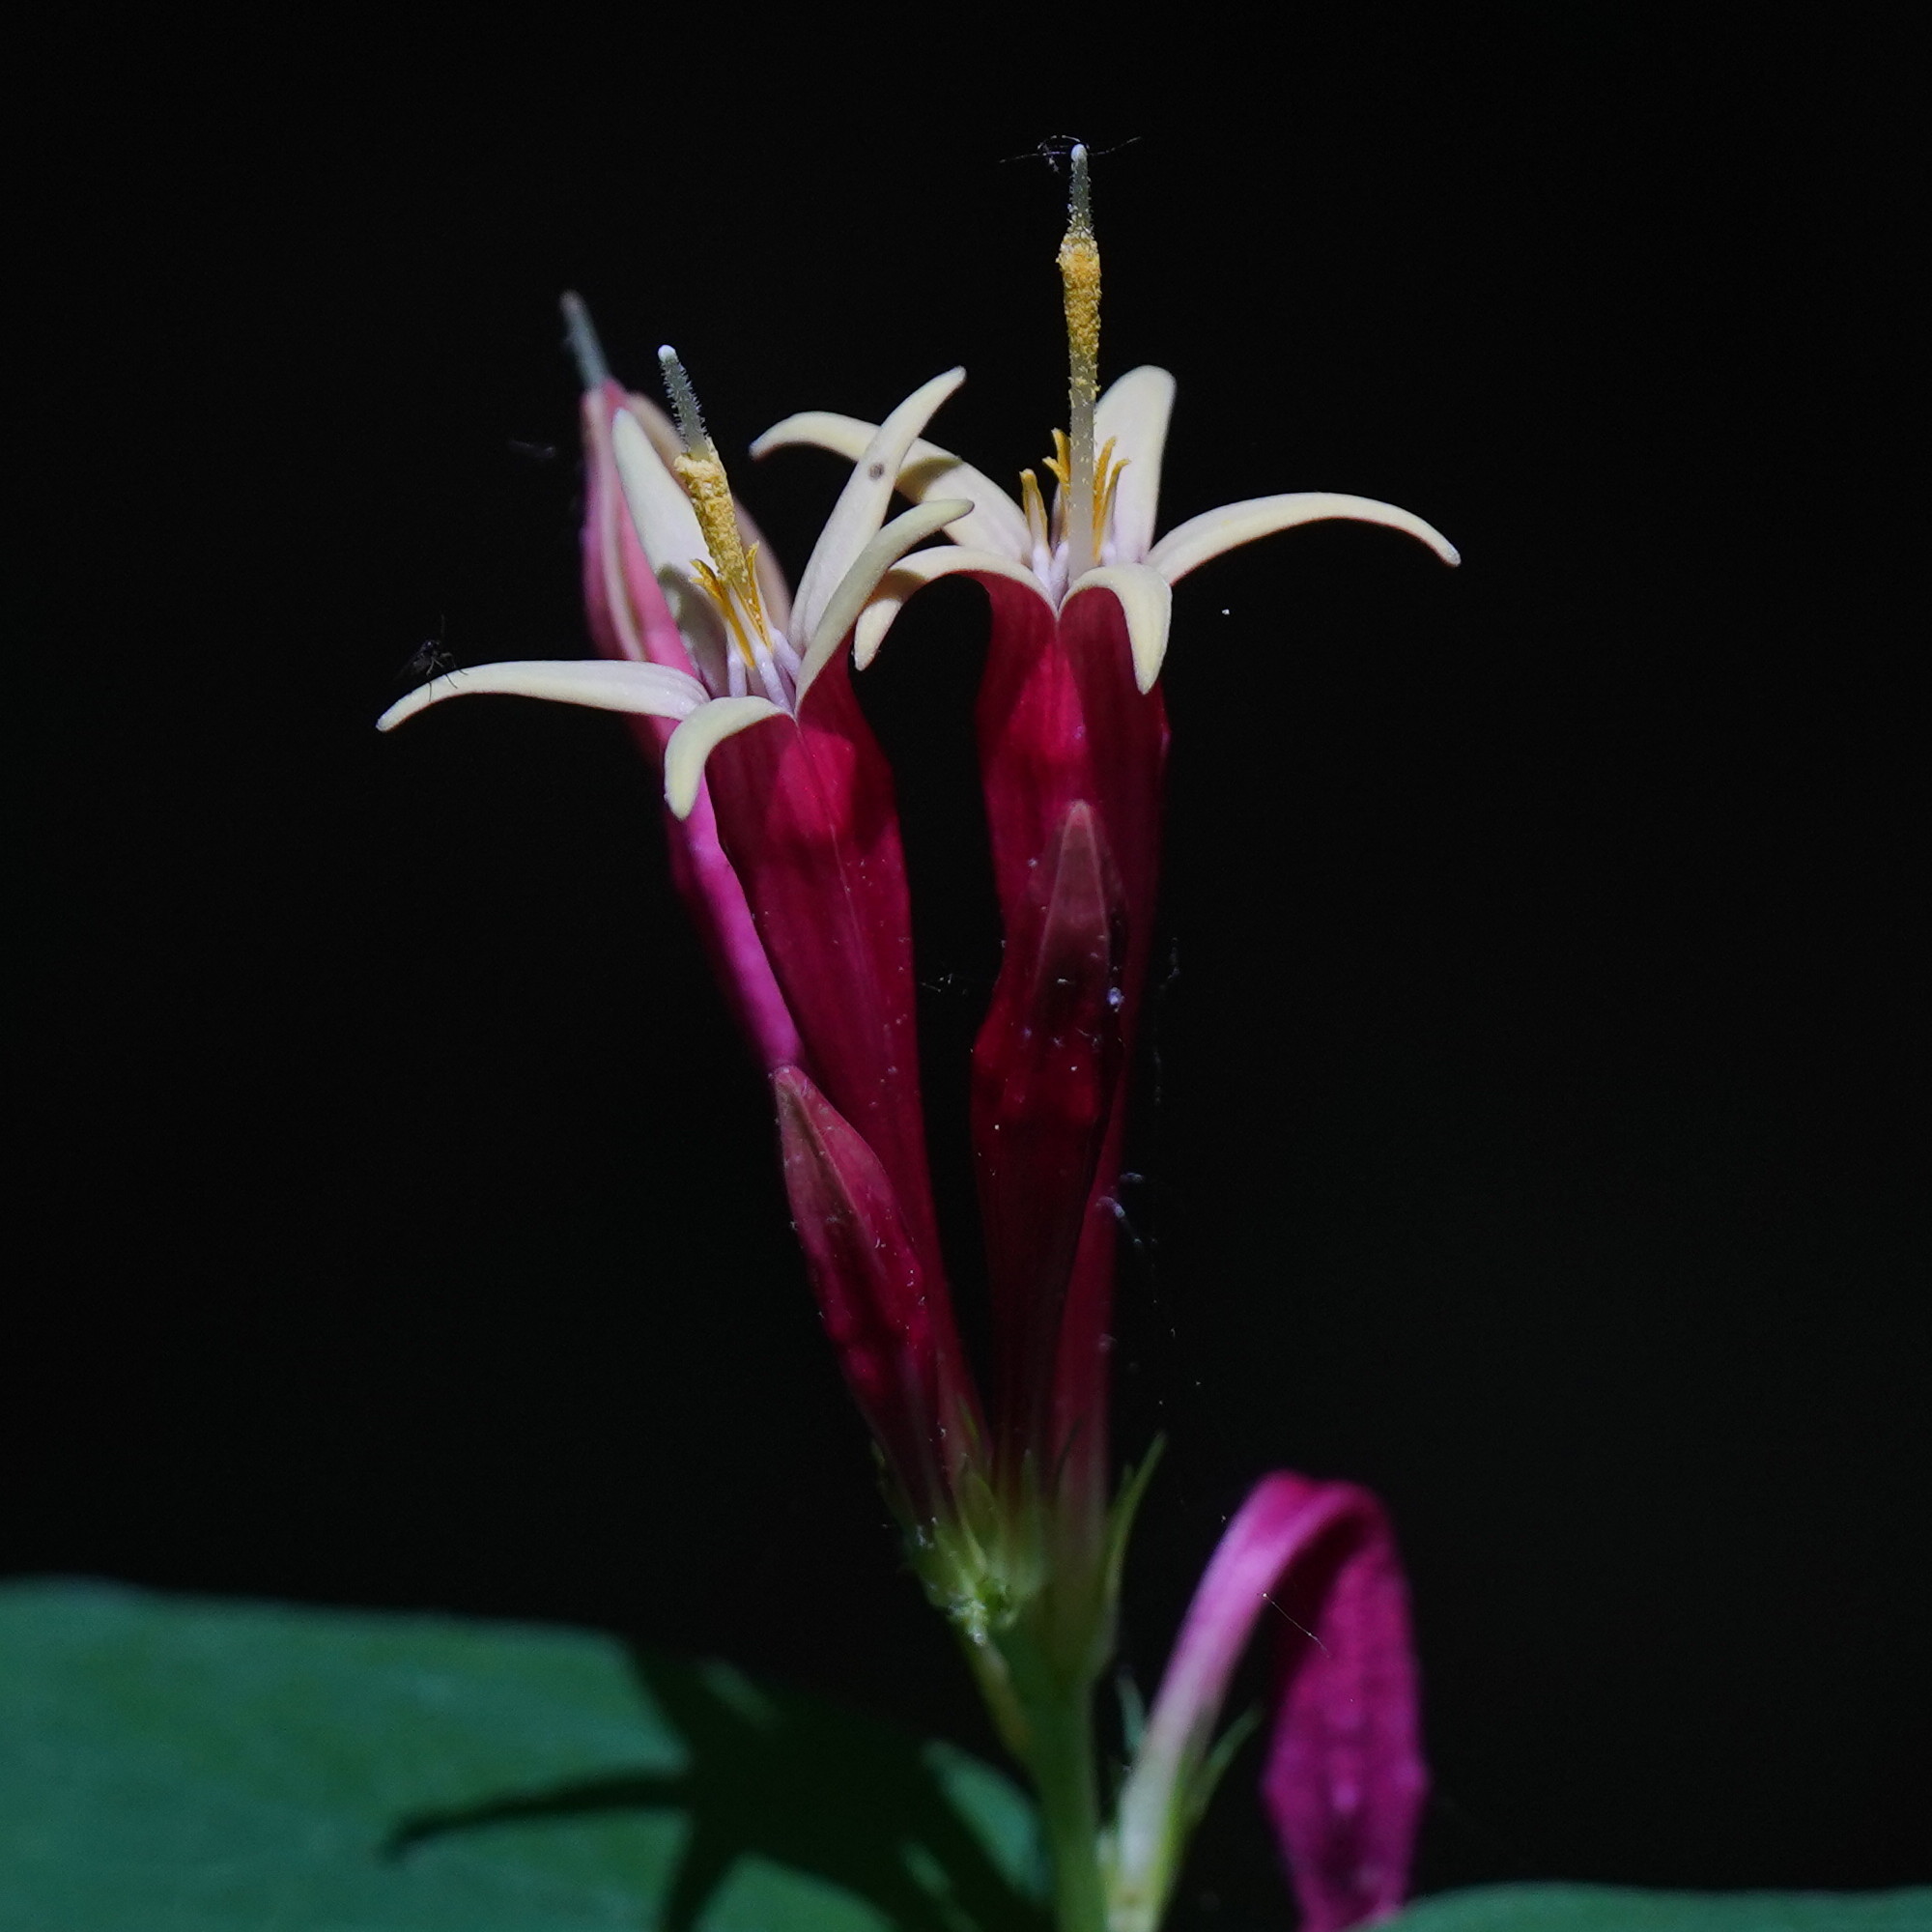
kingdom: Plantae
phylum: Tracheophyta
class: Magnoliopsida
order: Gentianales
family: Loganiaceae
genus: Spigelia
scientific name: Spigelia marilandica
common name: Indian-pink
